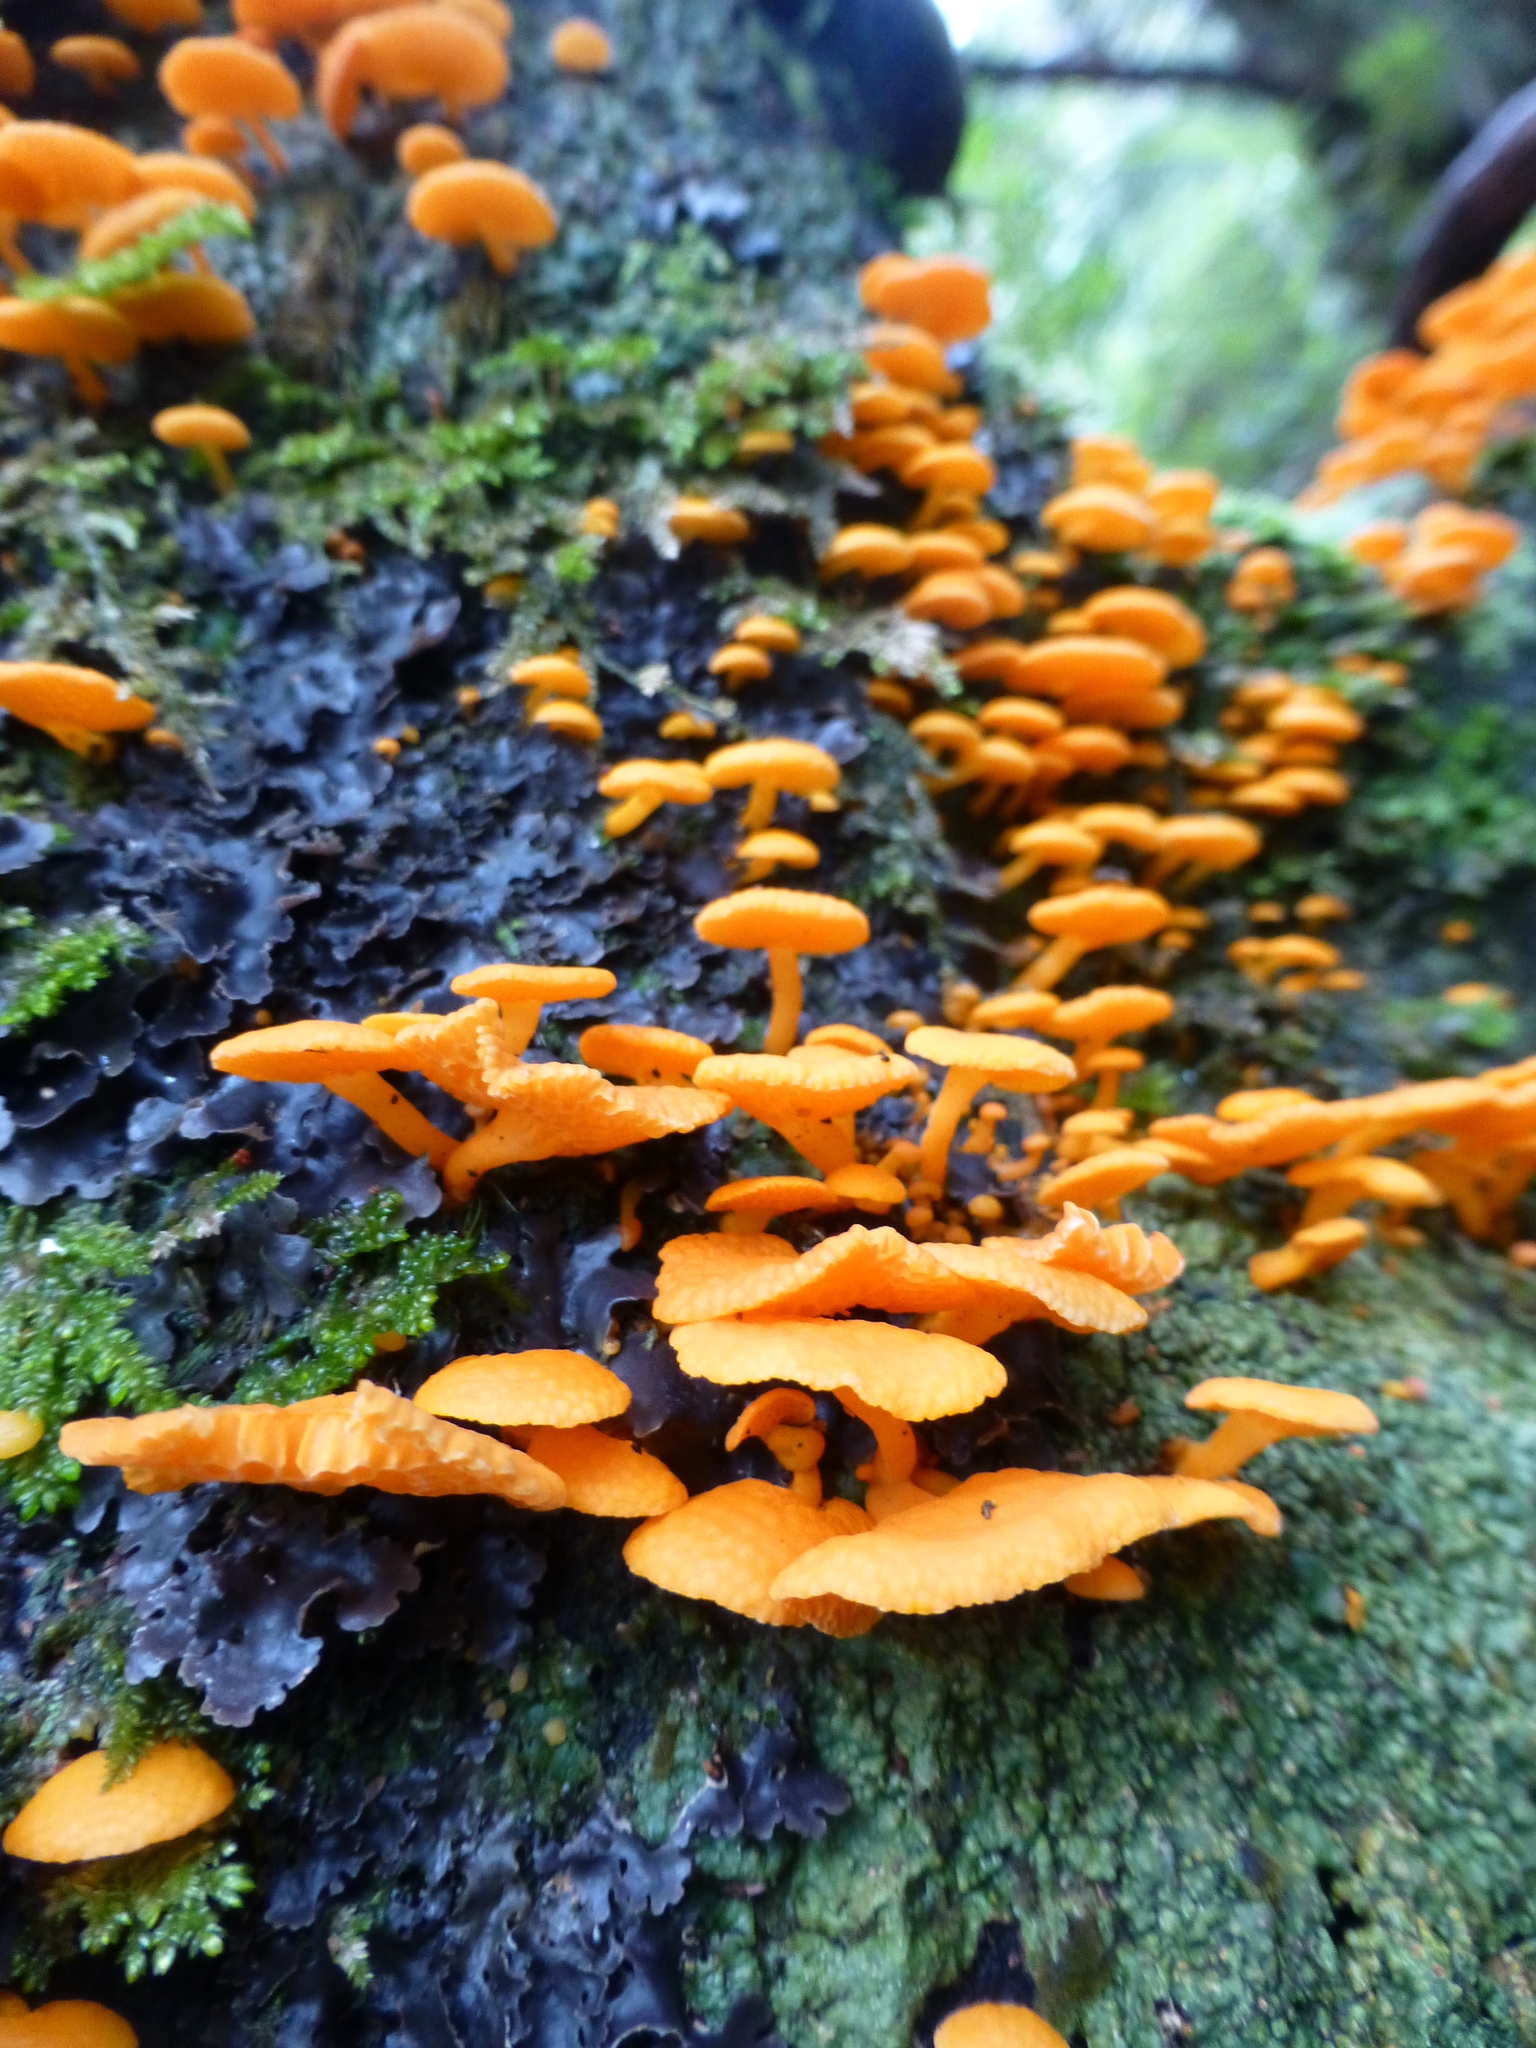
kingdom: Fungi
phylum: Basidiomycota
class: Agaricomycetes
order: Agaricales
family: Mycenaceae
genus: Favolaschia
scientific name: Favolaschia claudopus
